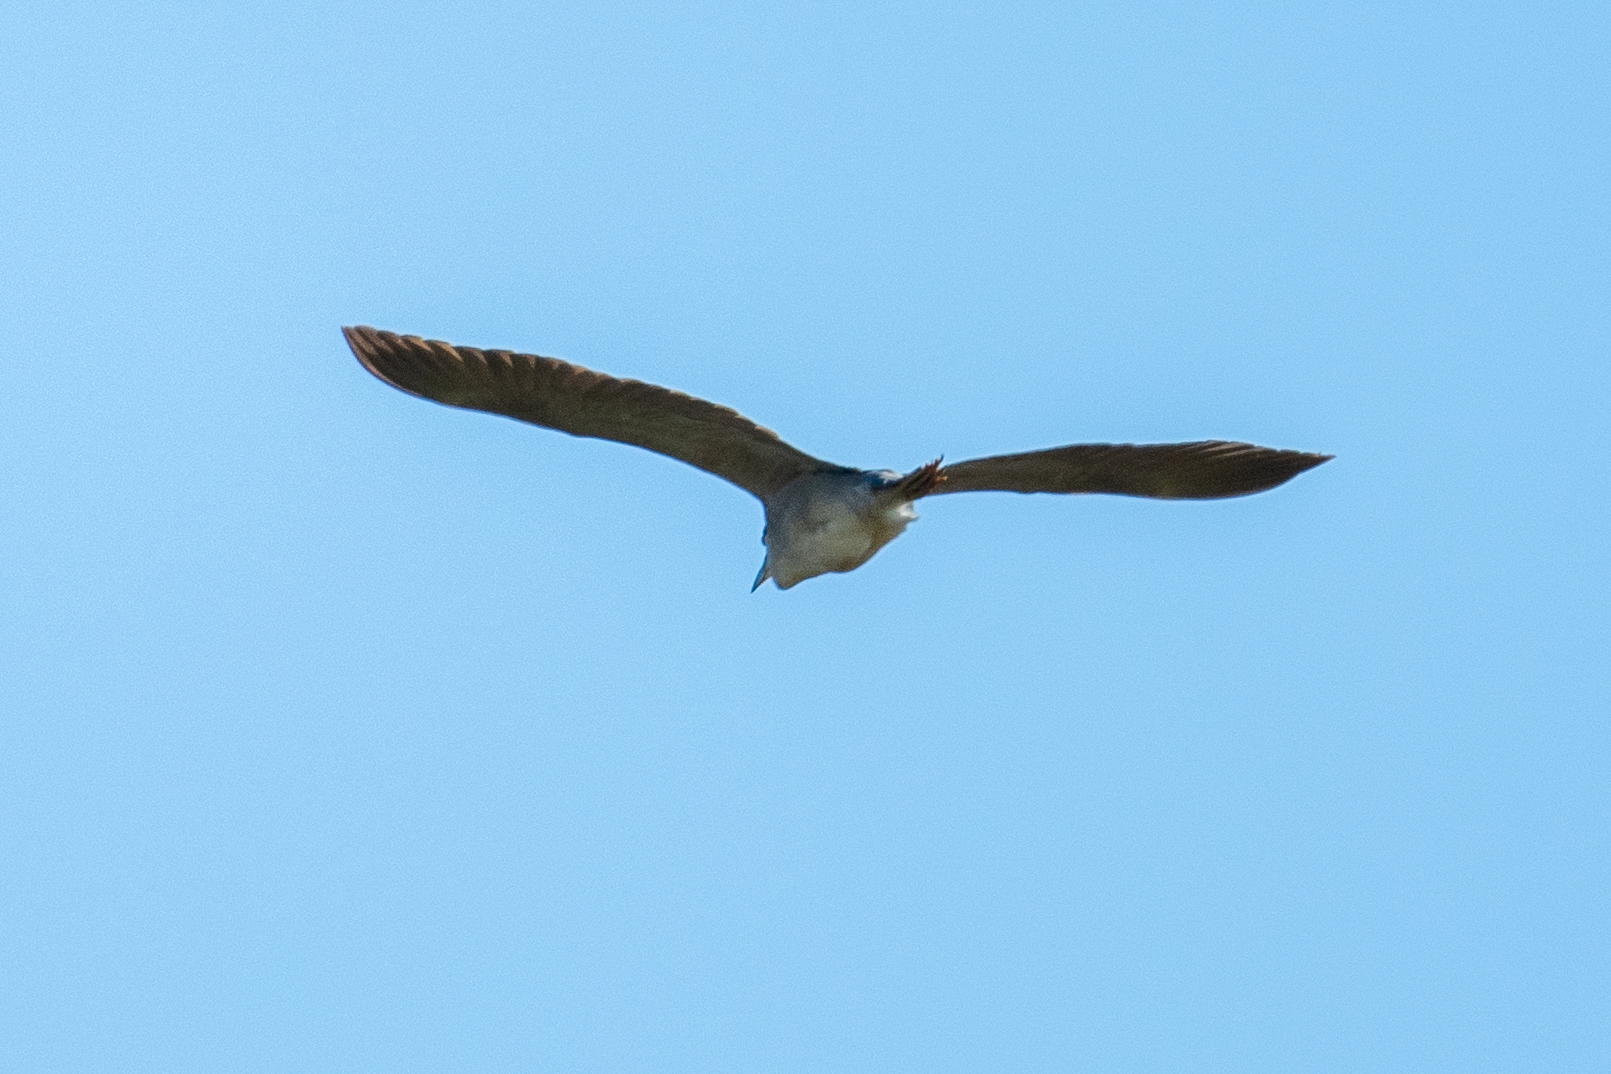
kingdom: Animalia
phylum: Chordata
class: Aves
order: Pelecaniformes
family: Ardeidae
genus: Nycticorax
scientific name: Nycticorax nycticorax
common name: Black-crowned night heron
